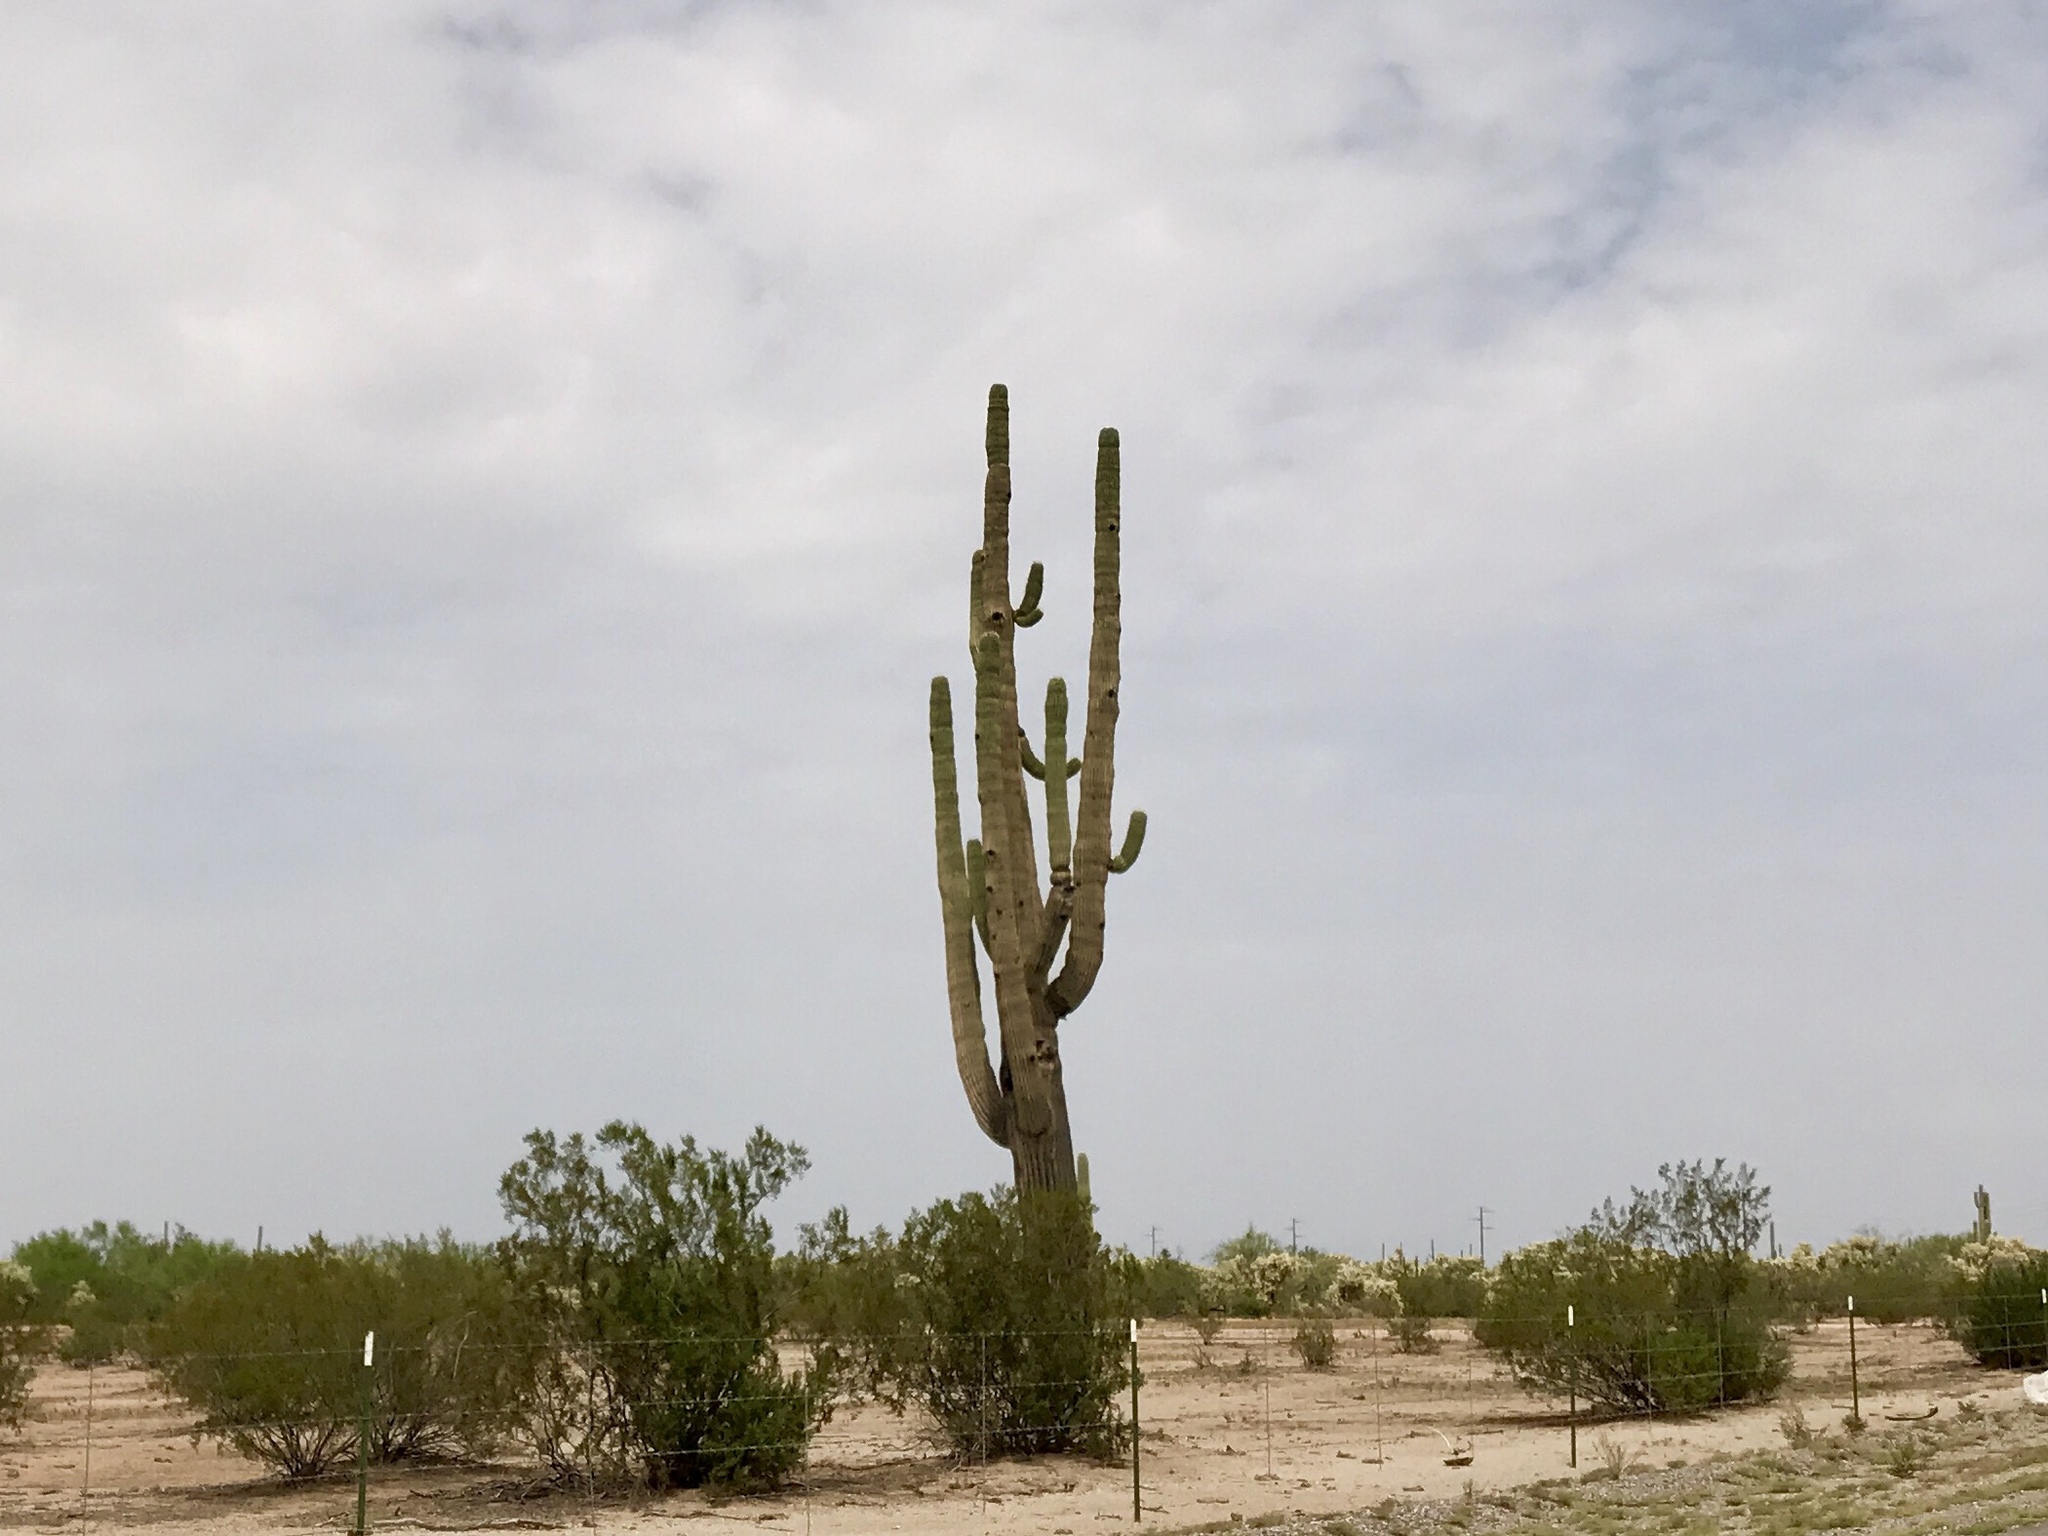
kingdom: Plantae
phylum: Tracheophyta
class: Magnoliopsida
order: Caryophyllales
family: Cactaceae
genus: Carnegiea
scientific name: Carnegiea gigantea
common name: Saguaro
